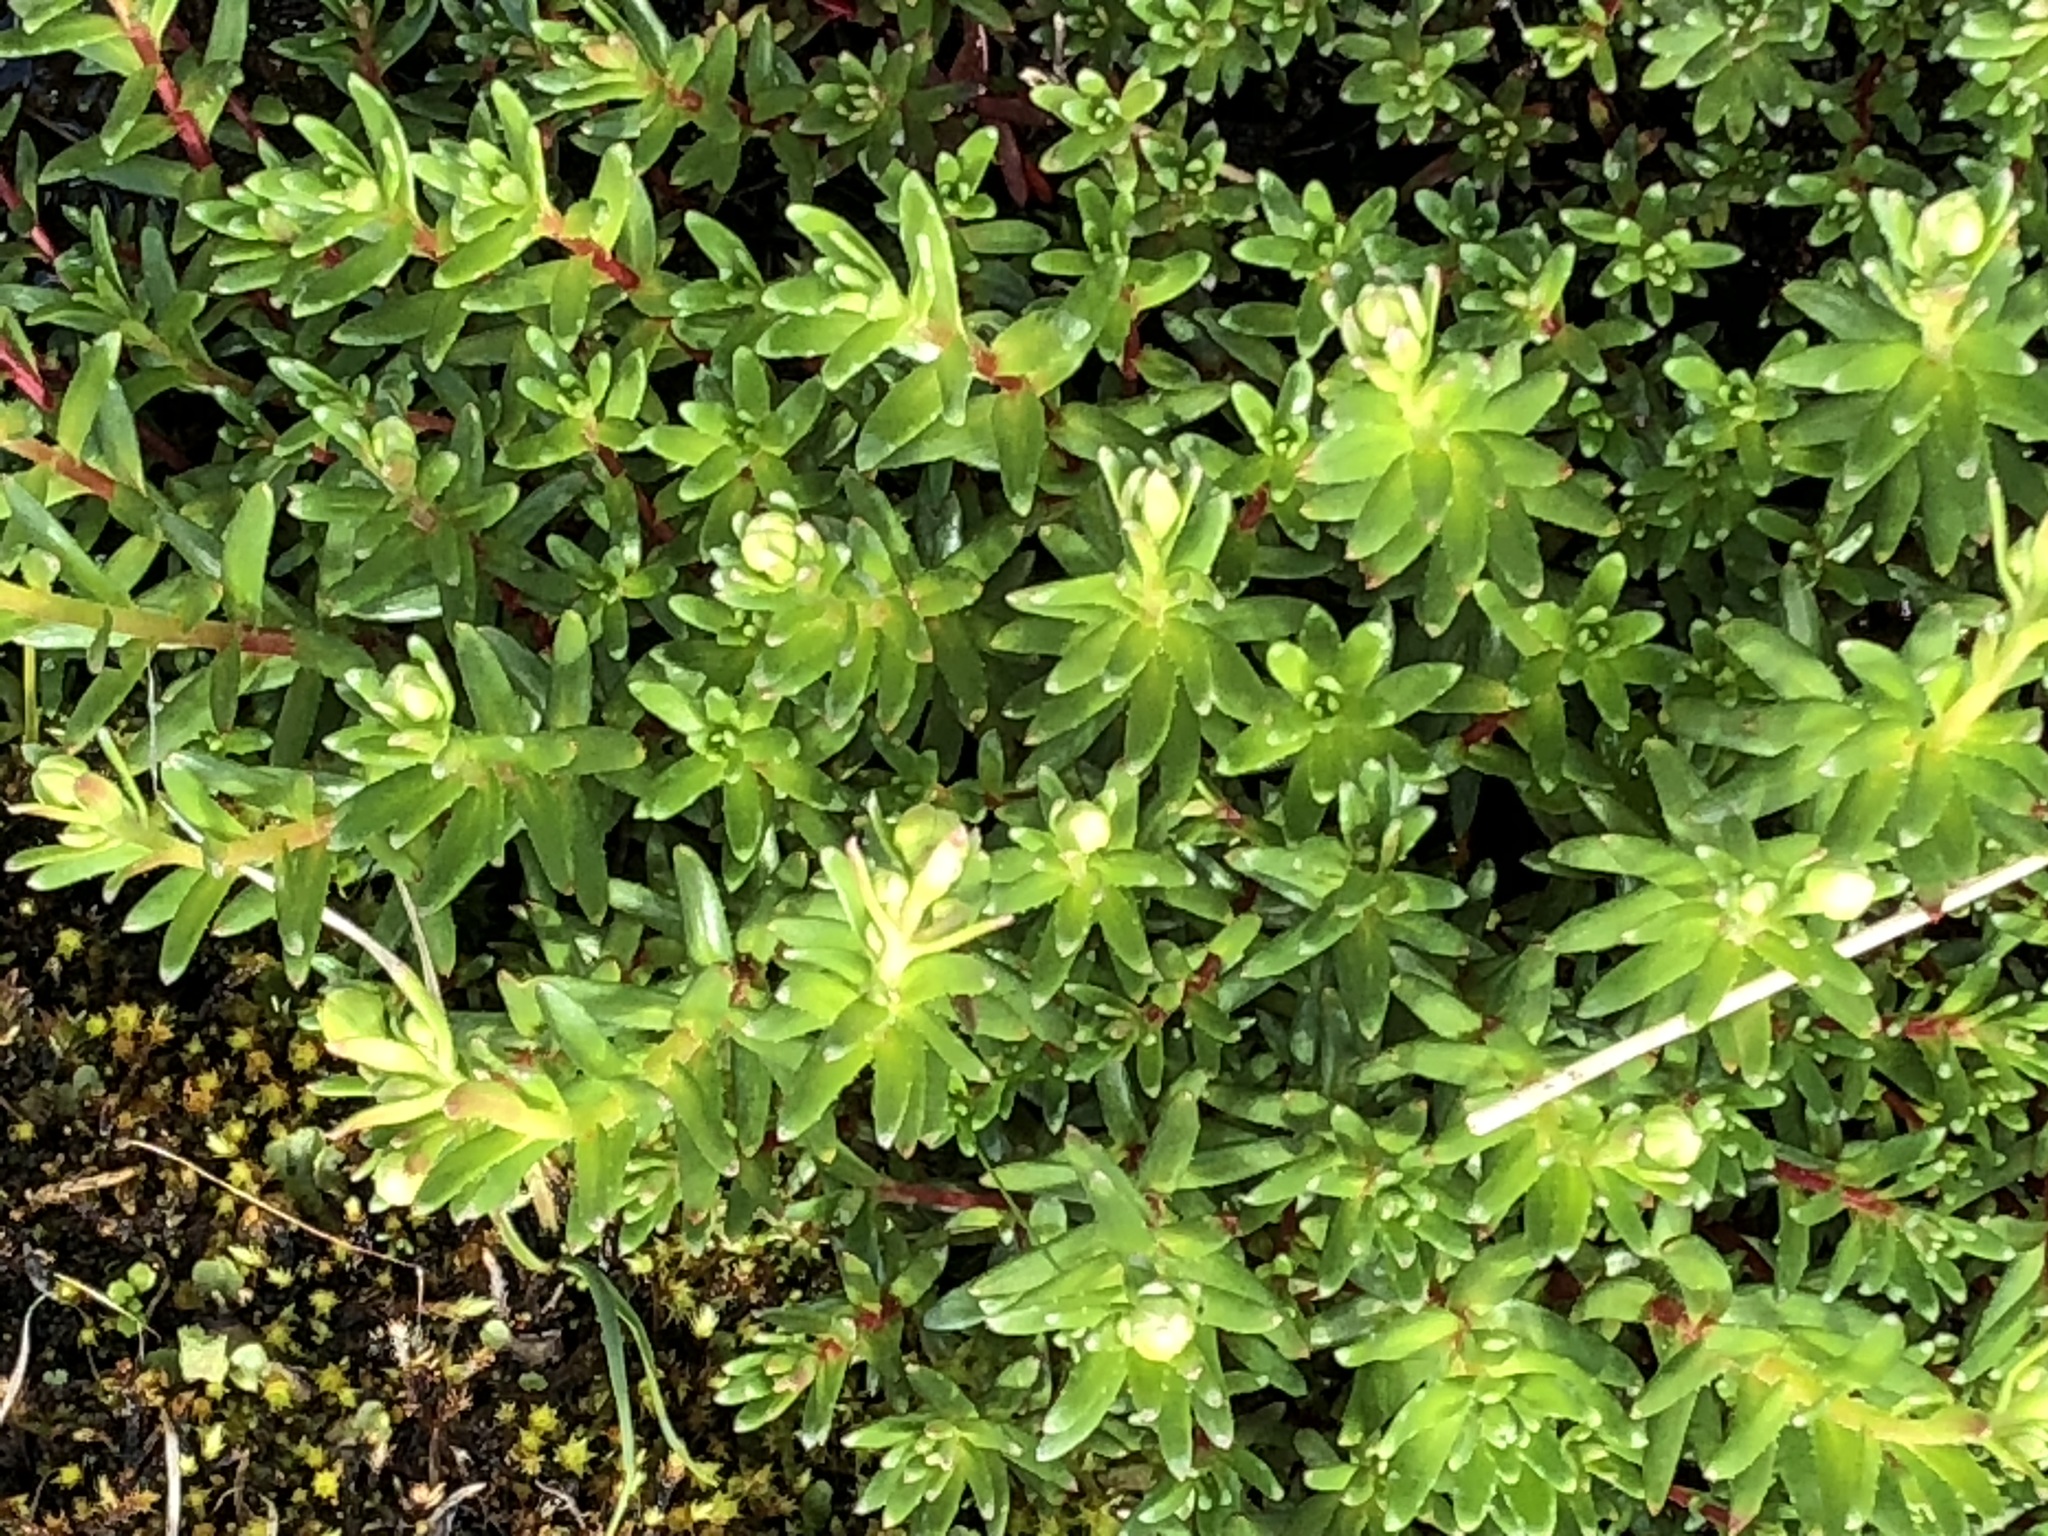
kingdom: Plantae
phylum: Tracheophyta
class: Magnoliopsida
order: Saxifragales
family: Saxifragaceae
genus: Saxifraga
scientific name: Saxifraga aizoides
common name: Yellow mountain saxifrage
